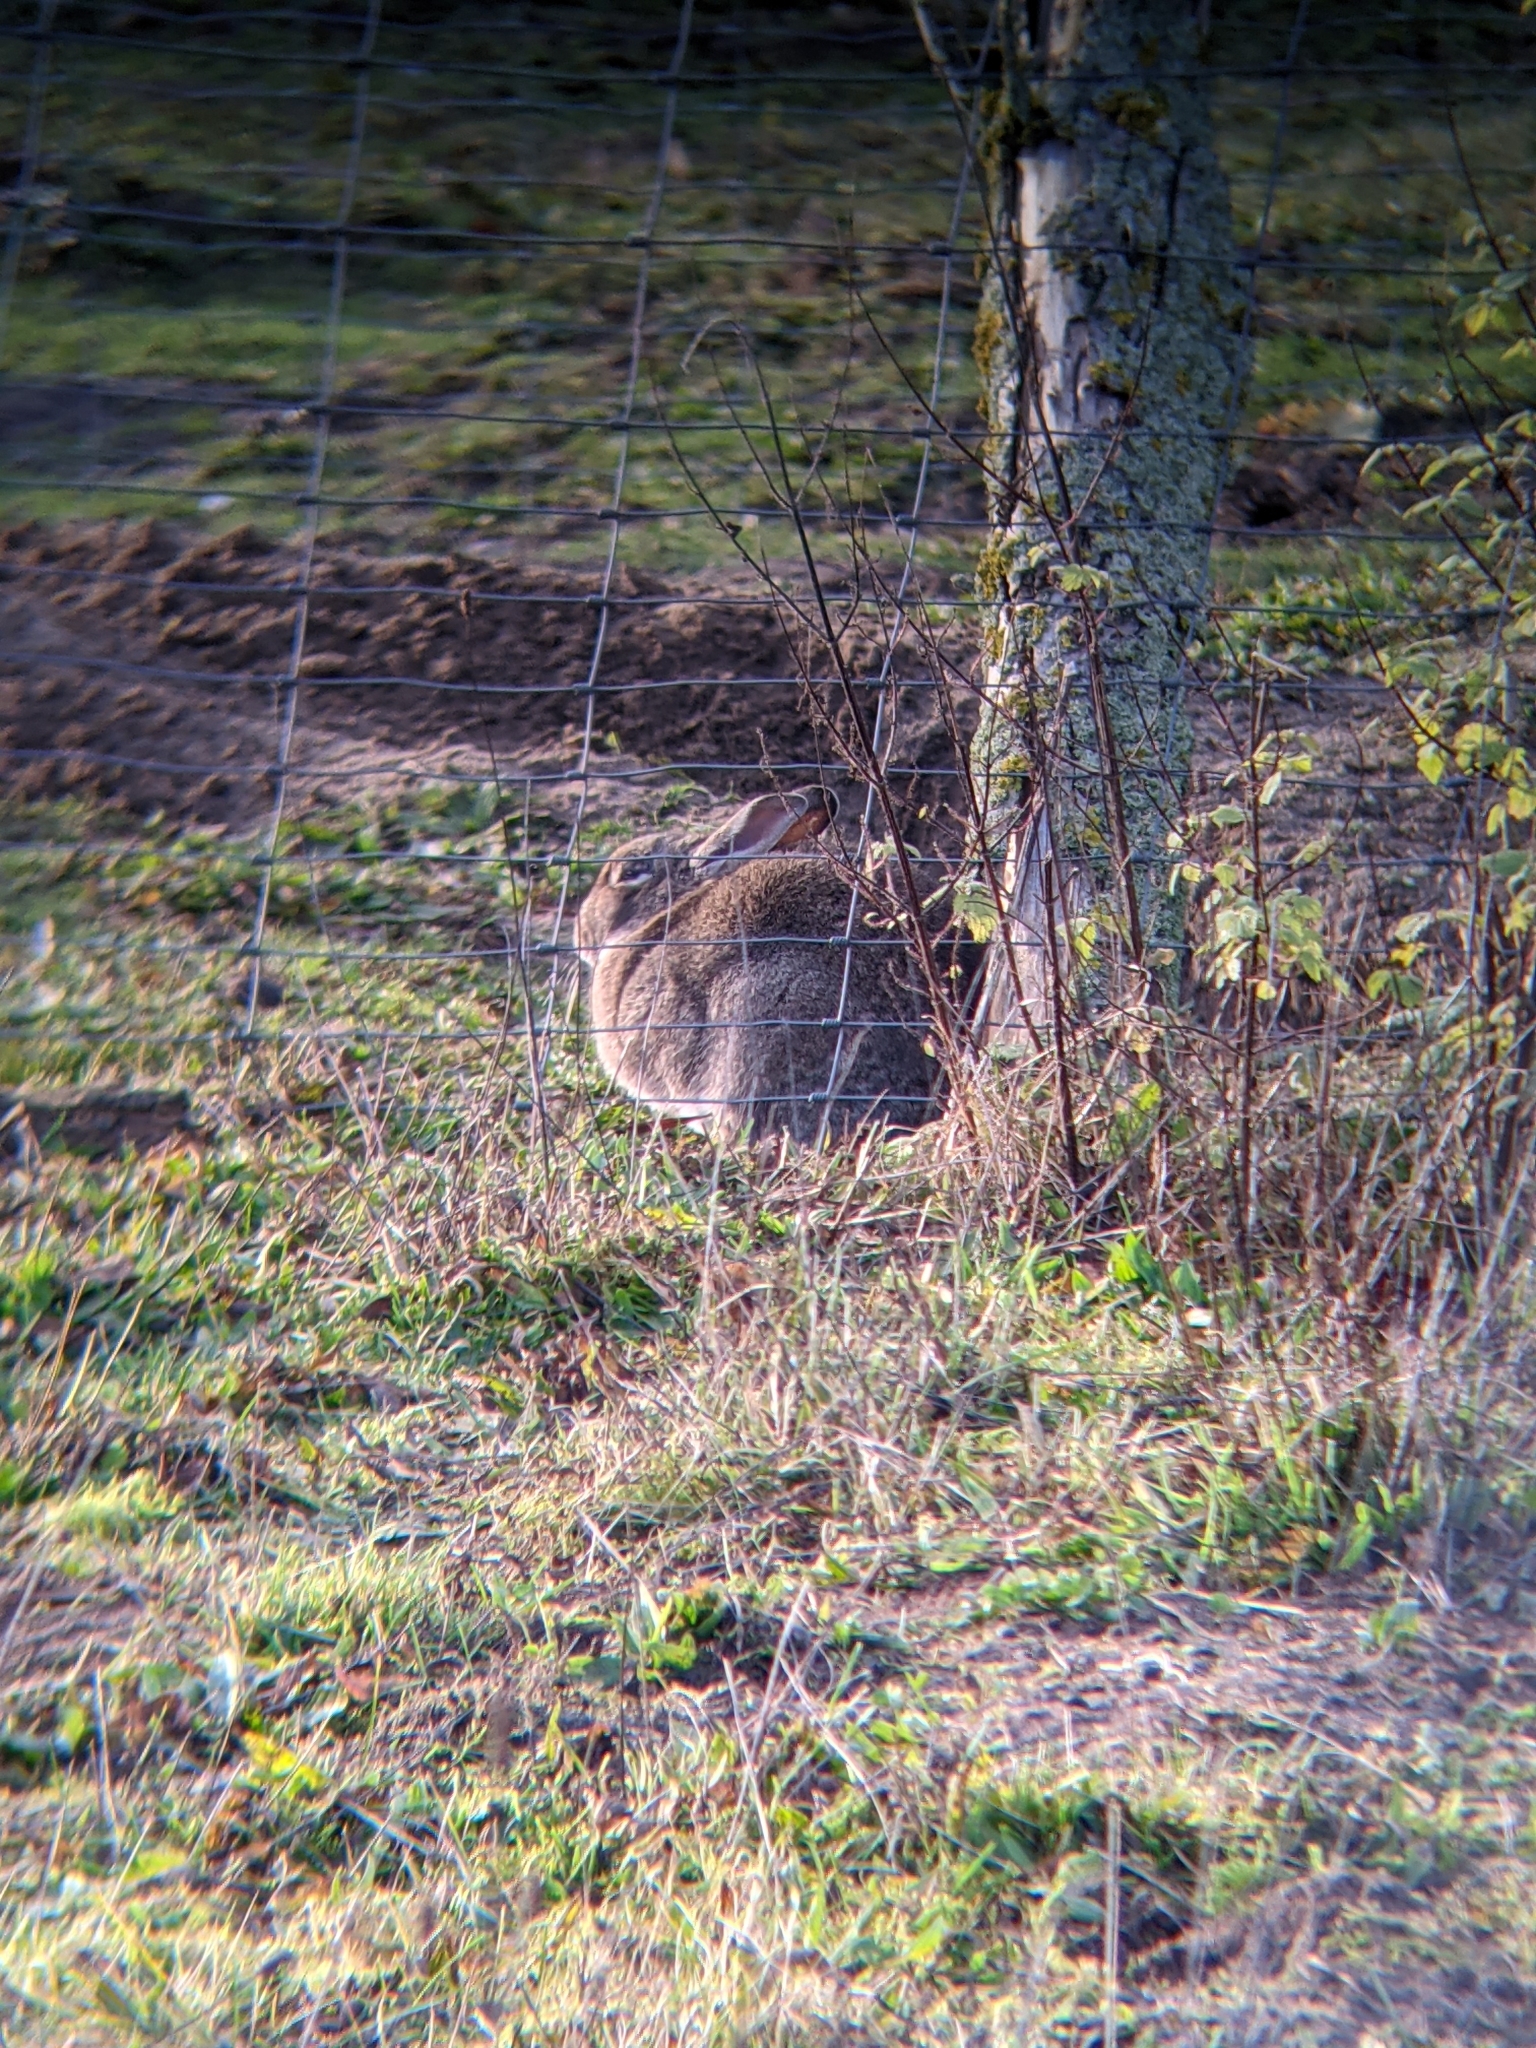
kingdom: Animalia
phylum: Chordata
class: Mammalia
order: Lagomorpha
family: Leporidae
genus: Oryctolagus
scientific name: Oryctolagus cuniculus
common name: European rabbit
